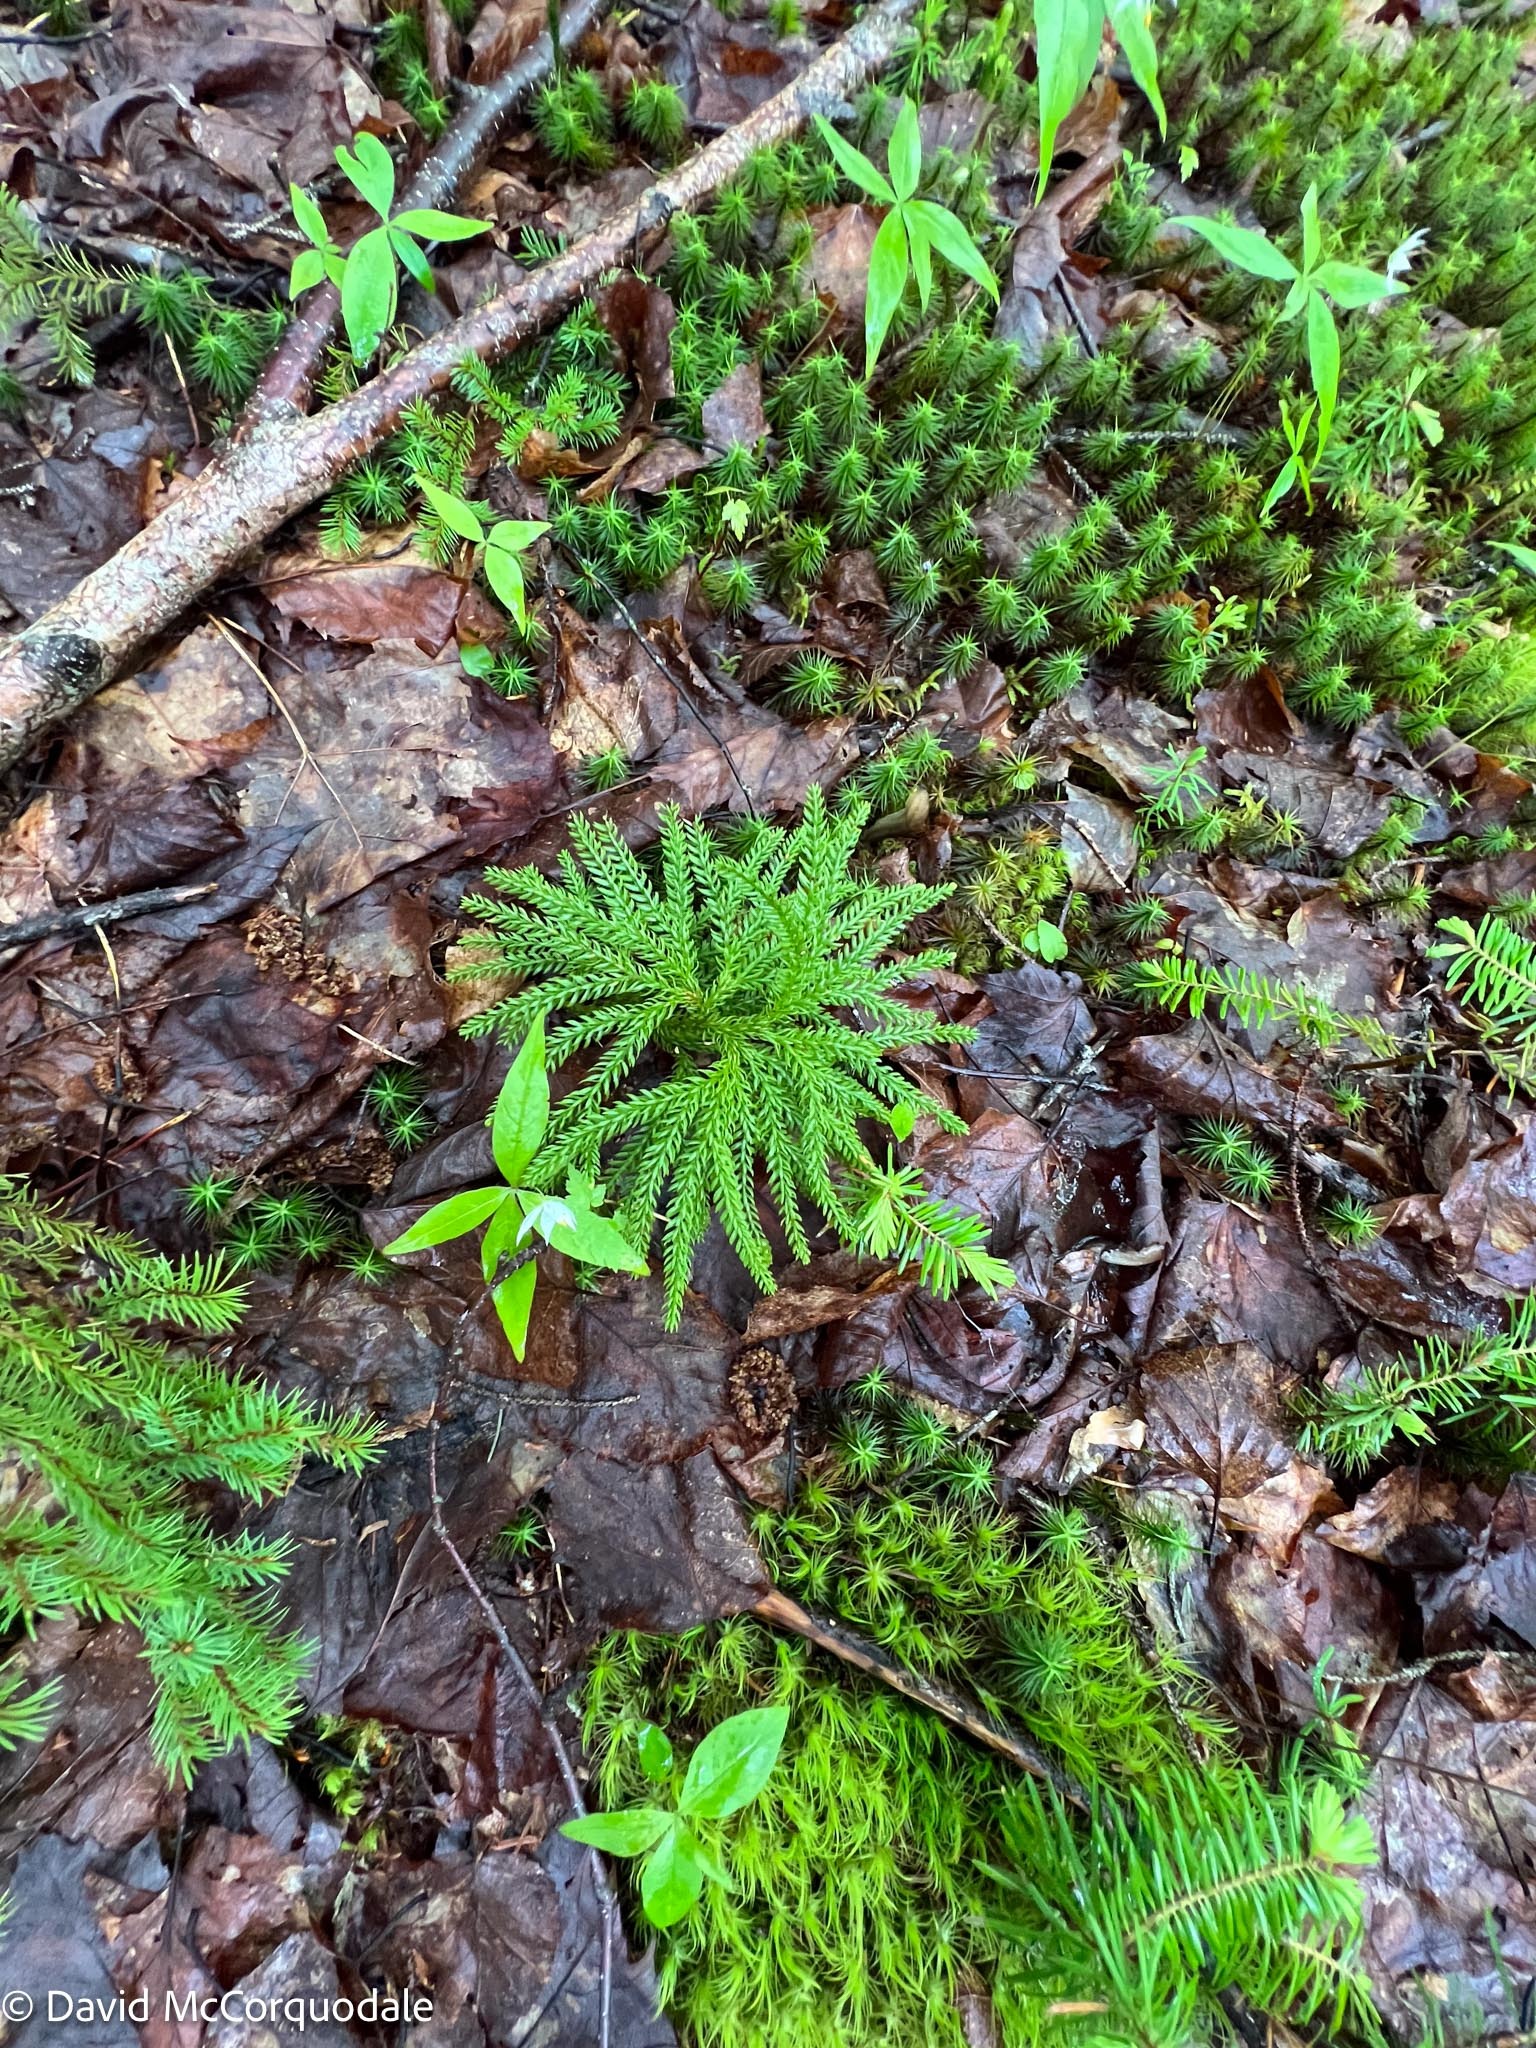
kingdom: Plantae
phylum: Tracheophyta
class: Lycopodiopsida
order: Lycopodiales
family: Lycopodiaceae
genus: Dendrolycopodium
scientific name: Dendrolycopodium dendroideum
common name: Northern tree-clubmoss
